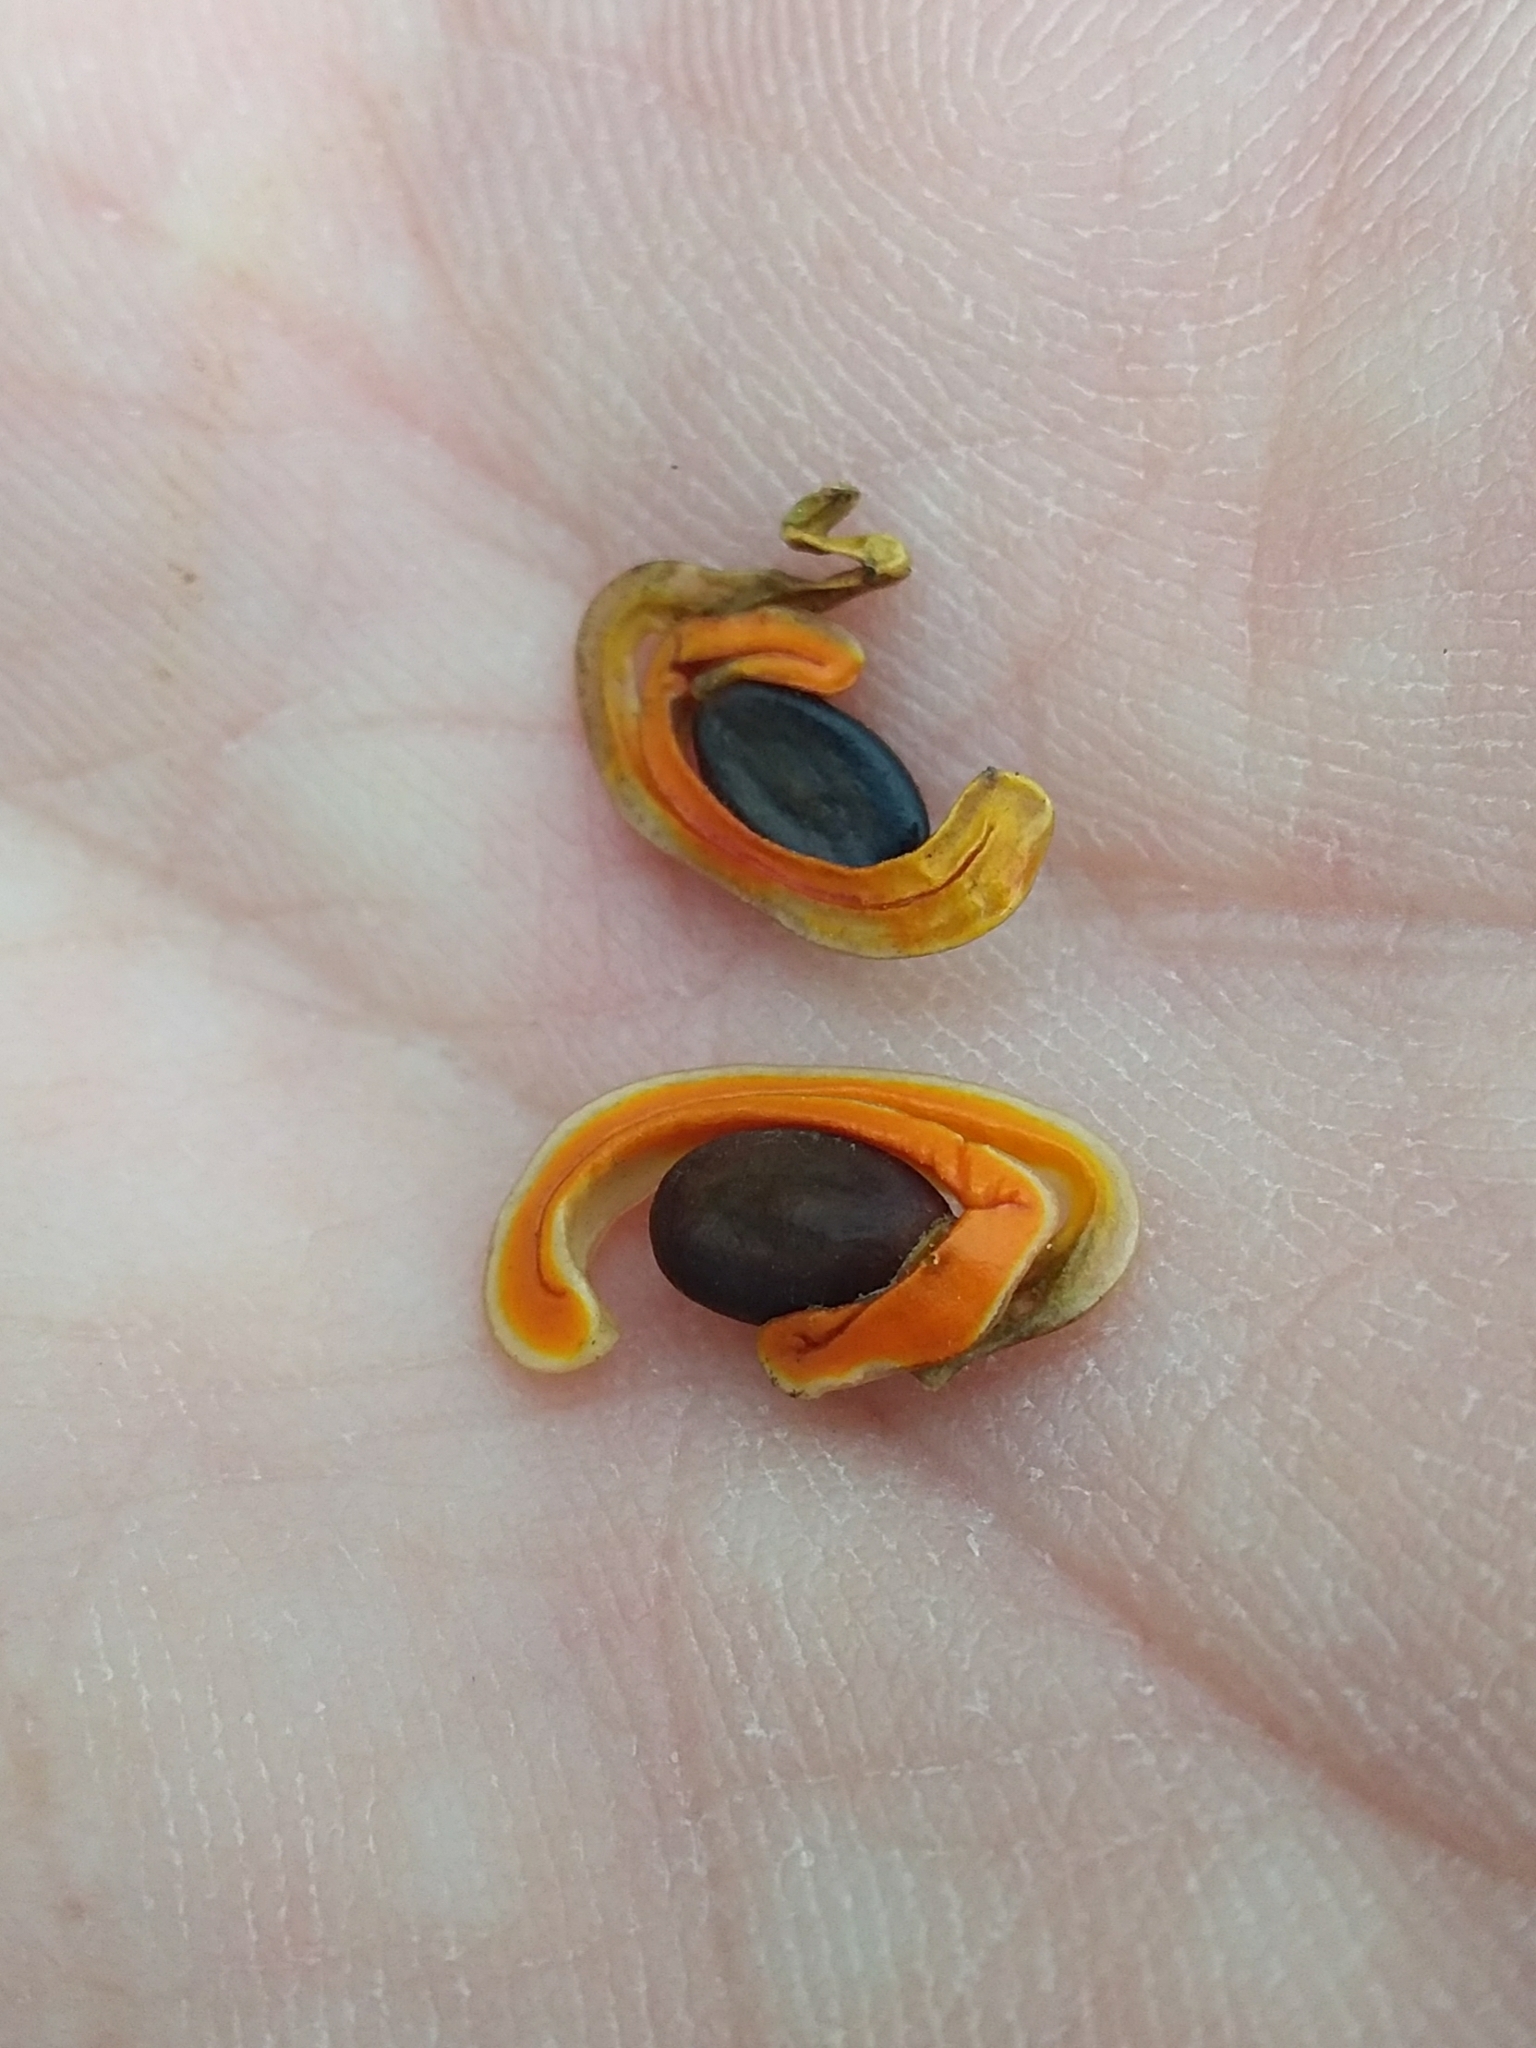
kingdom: Plantae
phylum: Tracheophyta
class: Magnoliopsida
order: Fabales
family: Fabaceae
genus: Acacia
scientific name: Acacia cyclops
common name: Coastal wattle
